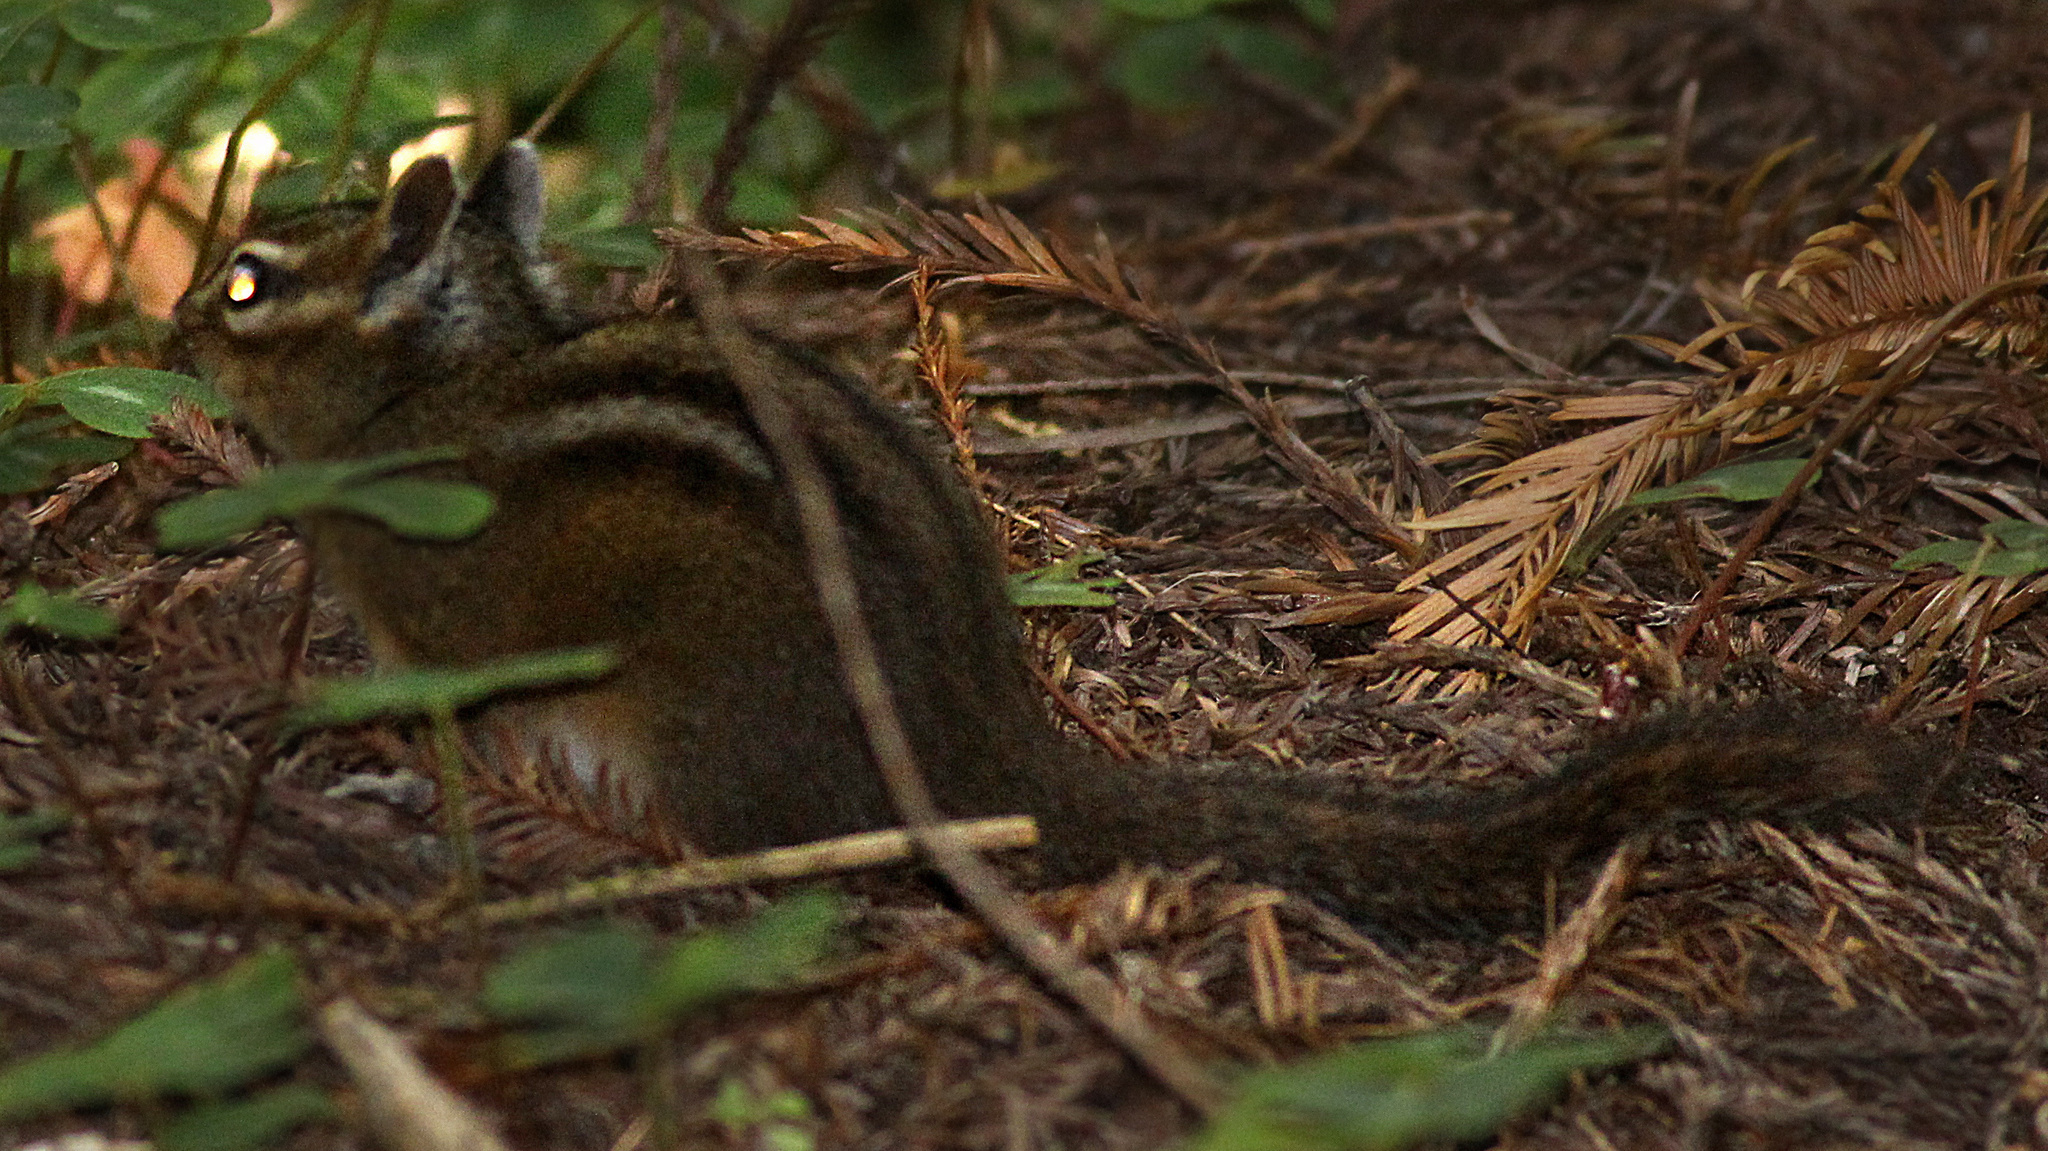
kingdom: Animalia
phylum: Chordata
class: Mammalia
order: Rodentia
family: Sciuridae
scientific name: Sciuridae
